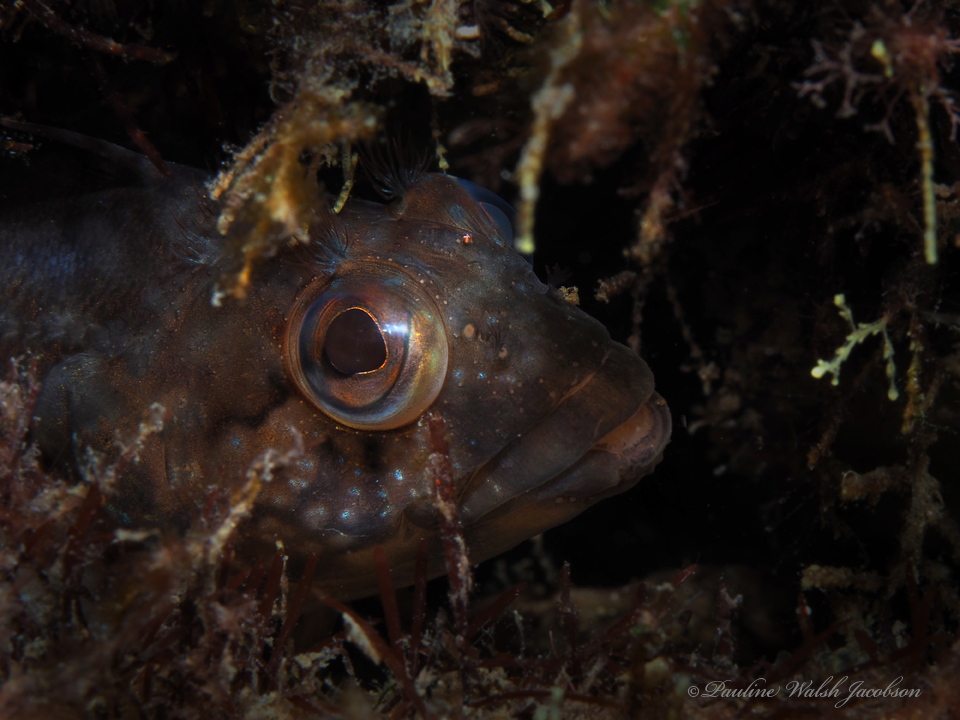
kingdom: Animalia
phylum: Chordata
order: Perciformes
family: Labrisomidae
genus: Labrisomus
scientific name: Labrisomus conditus
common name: Masquerader hairy blenny
